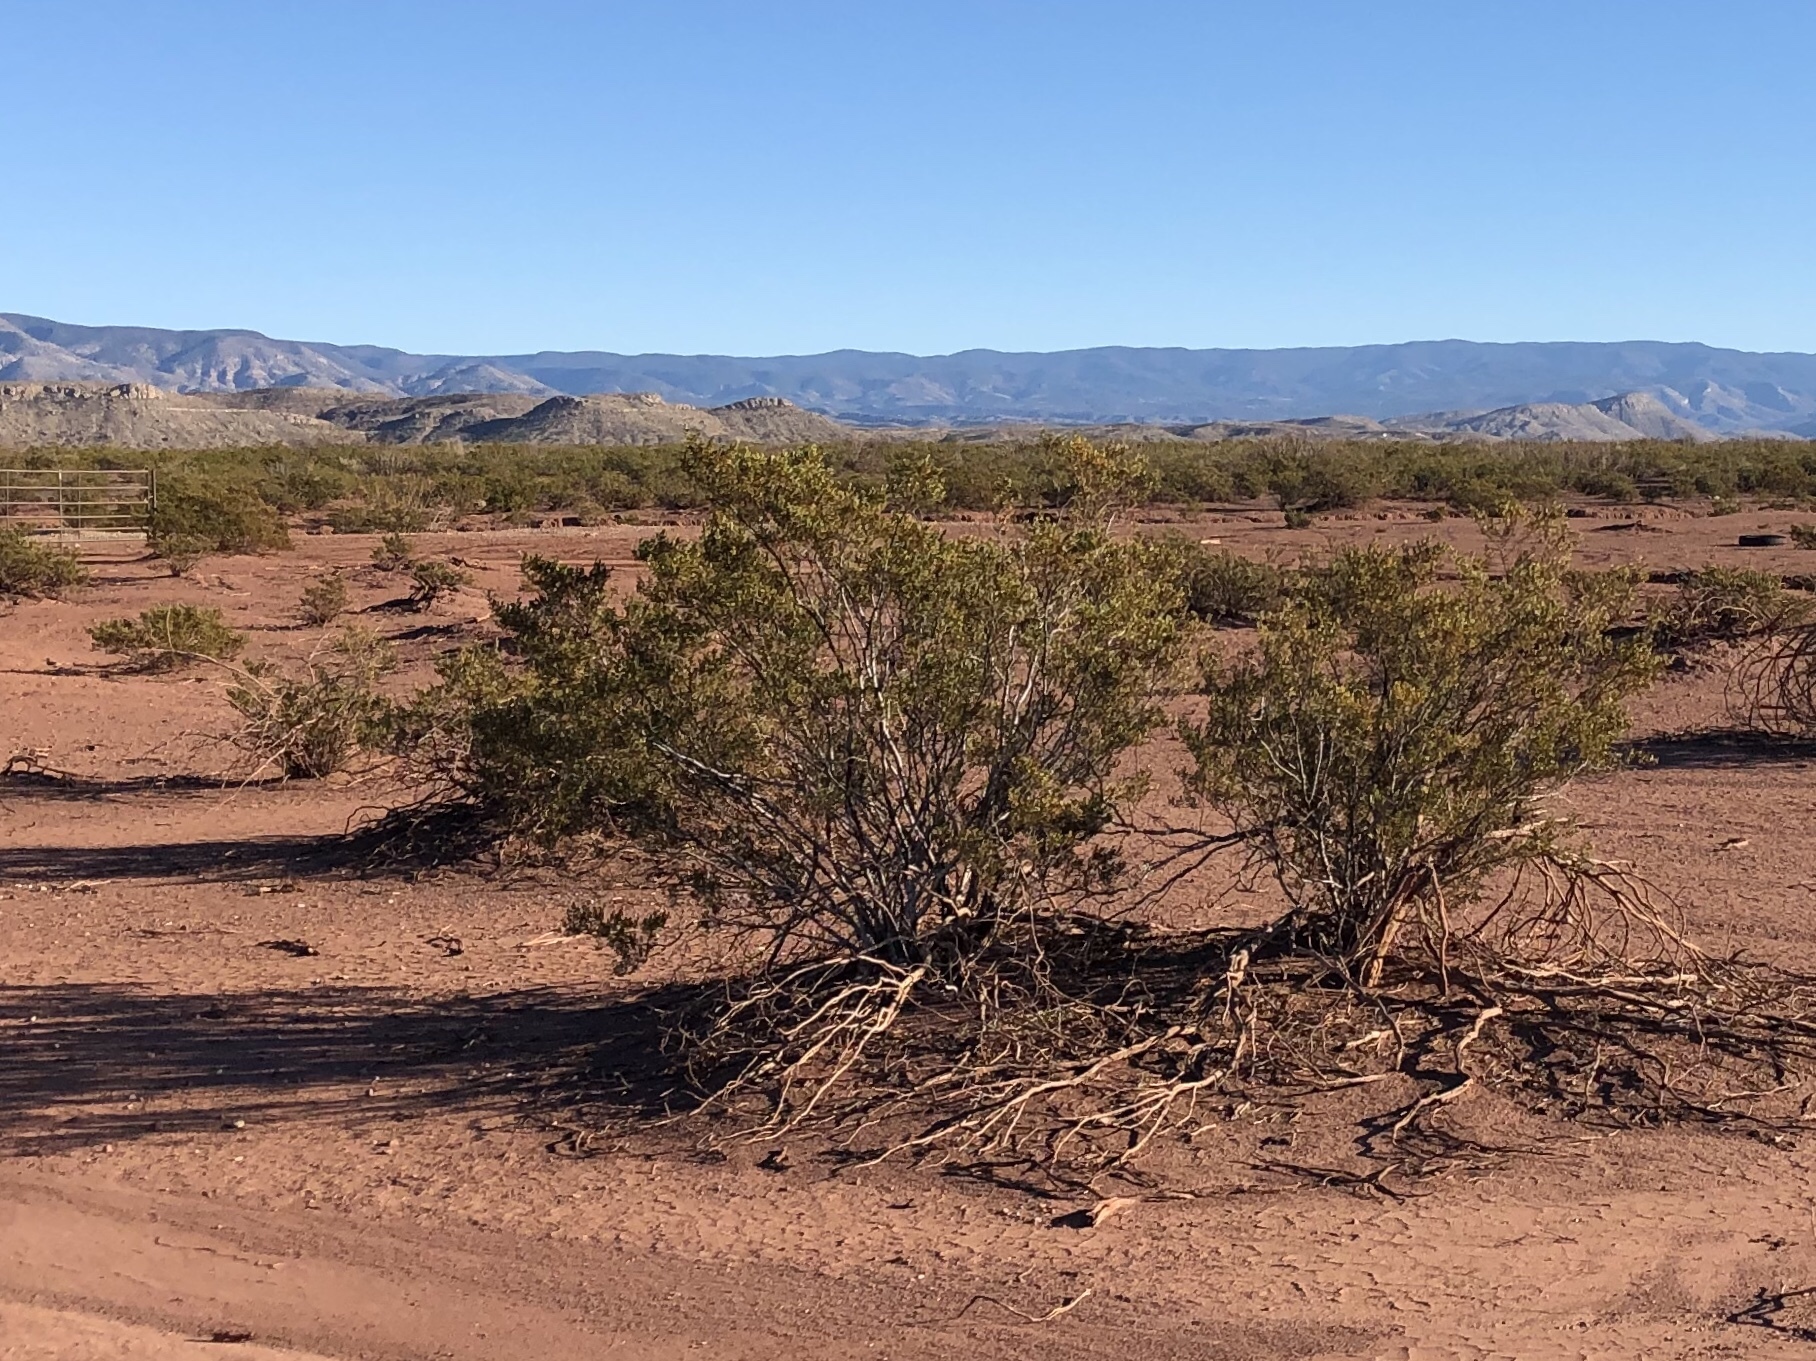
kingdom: Plantae
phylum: Tracheophyta
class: Magnoliopsida
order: Zygophyllales
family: Zygophyllaceae
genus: Larrea
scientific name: Larrea tridentata
